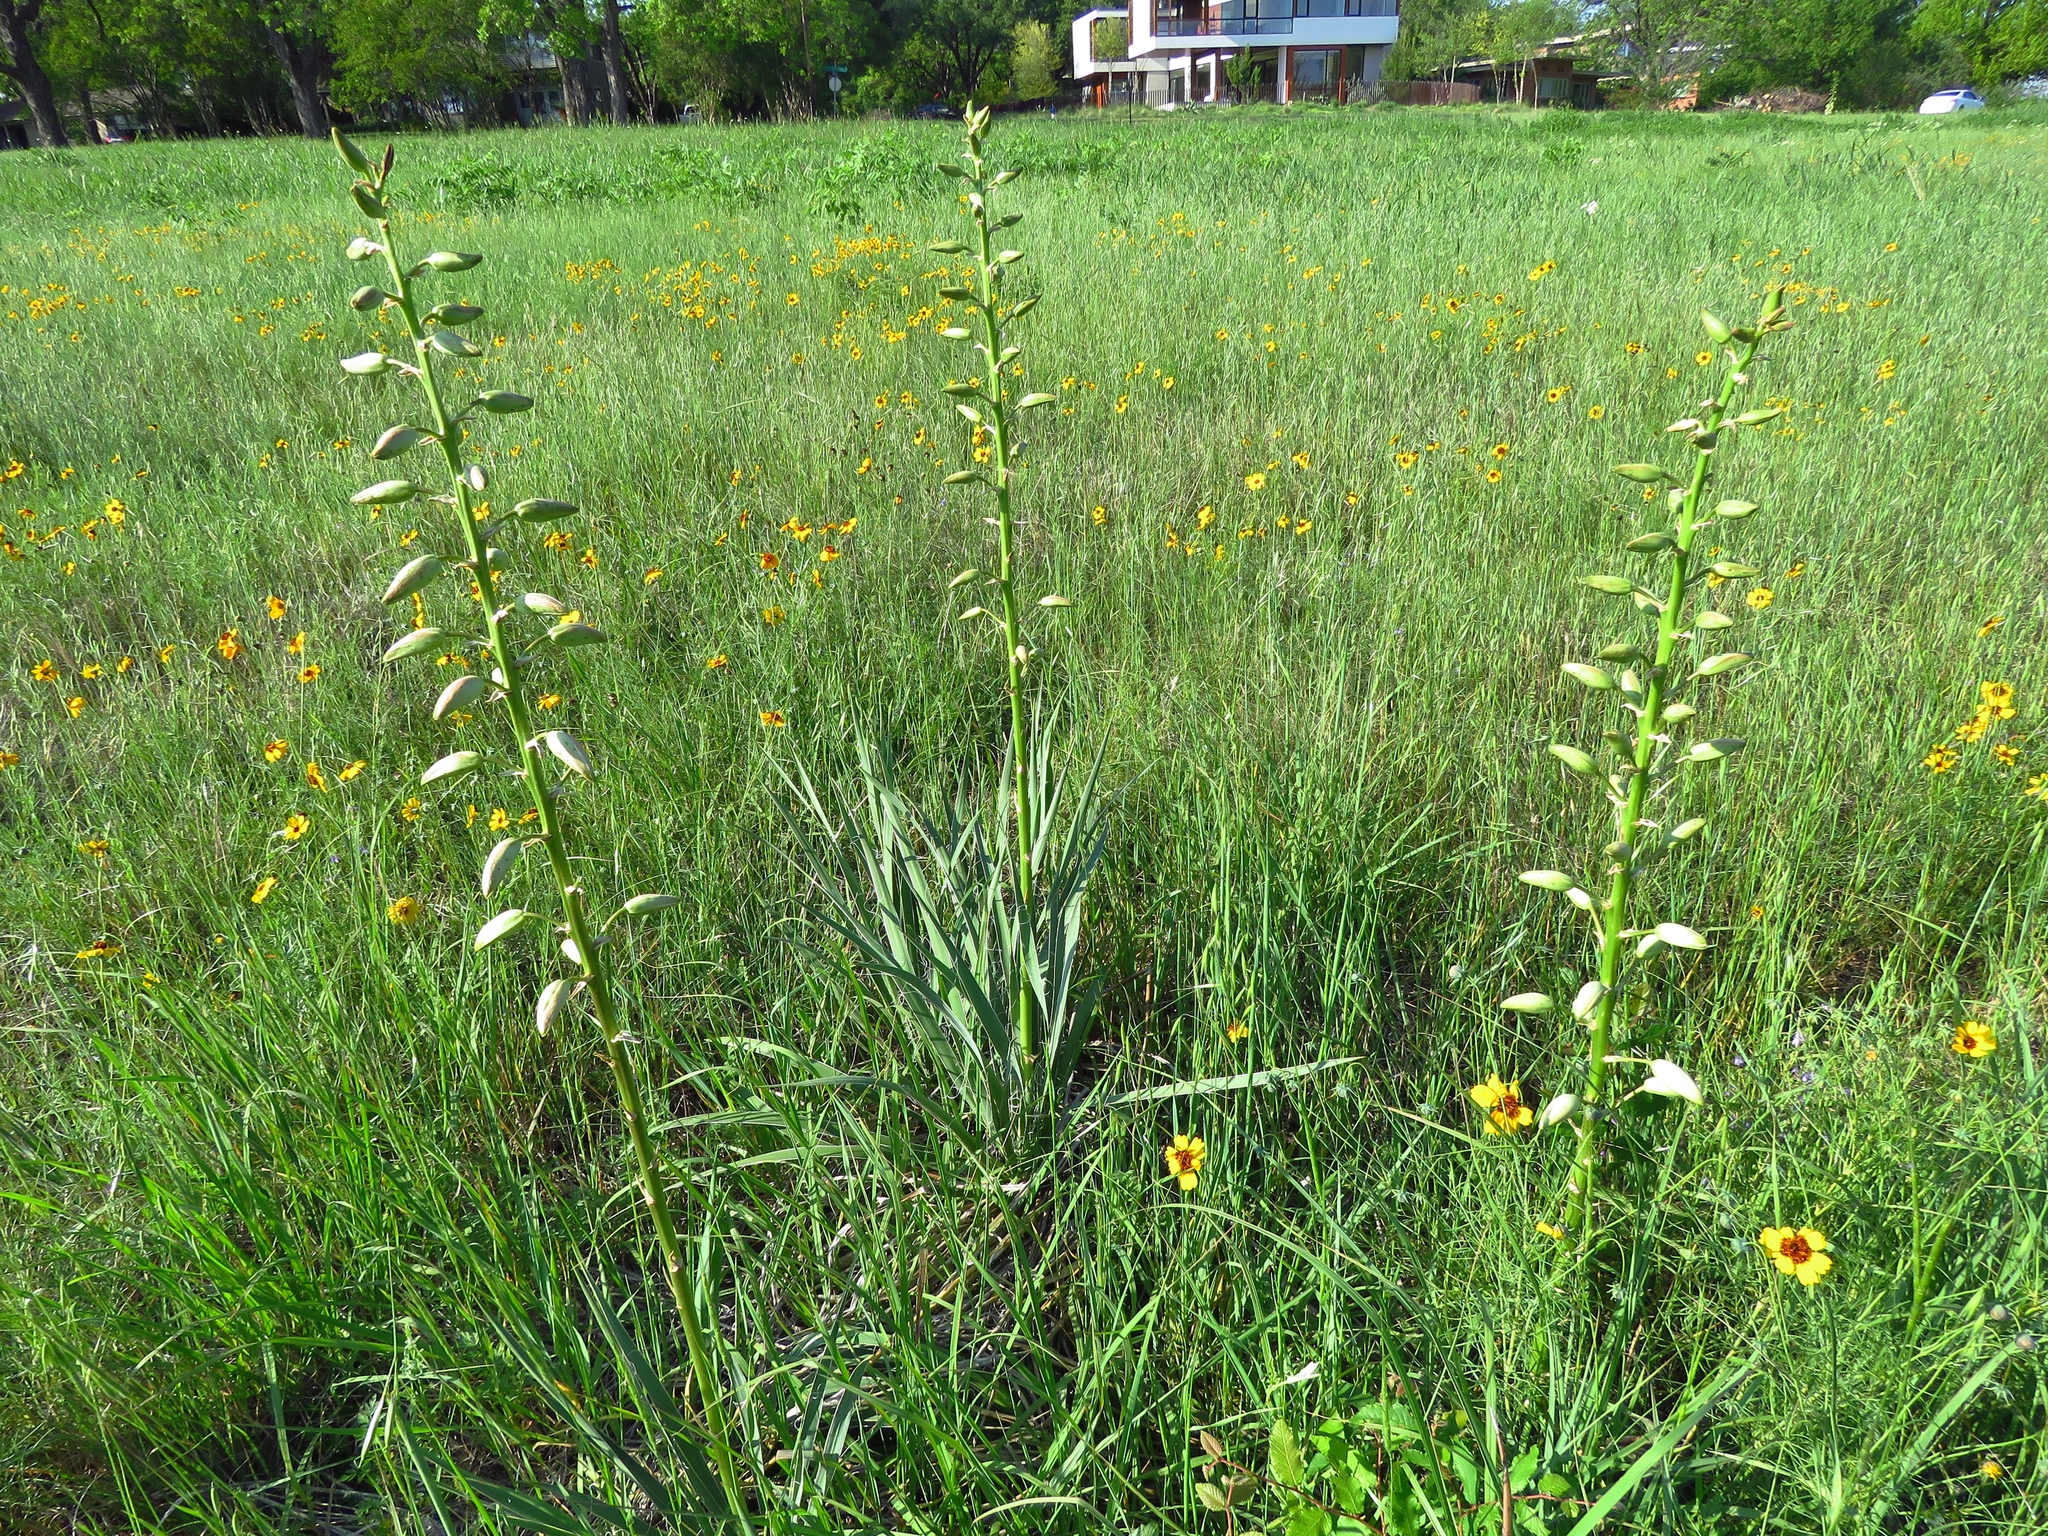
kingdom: Plantae
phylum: Tracheophyta
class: Liliopsida
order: Asparagales
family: Asparagaceae
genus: Yucca
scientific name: Yucca arkansana
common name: Arkansas yucca
